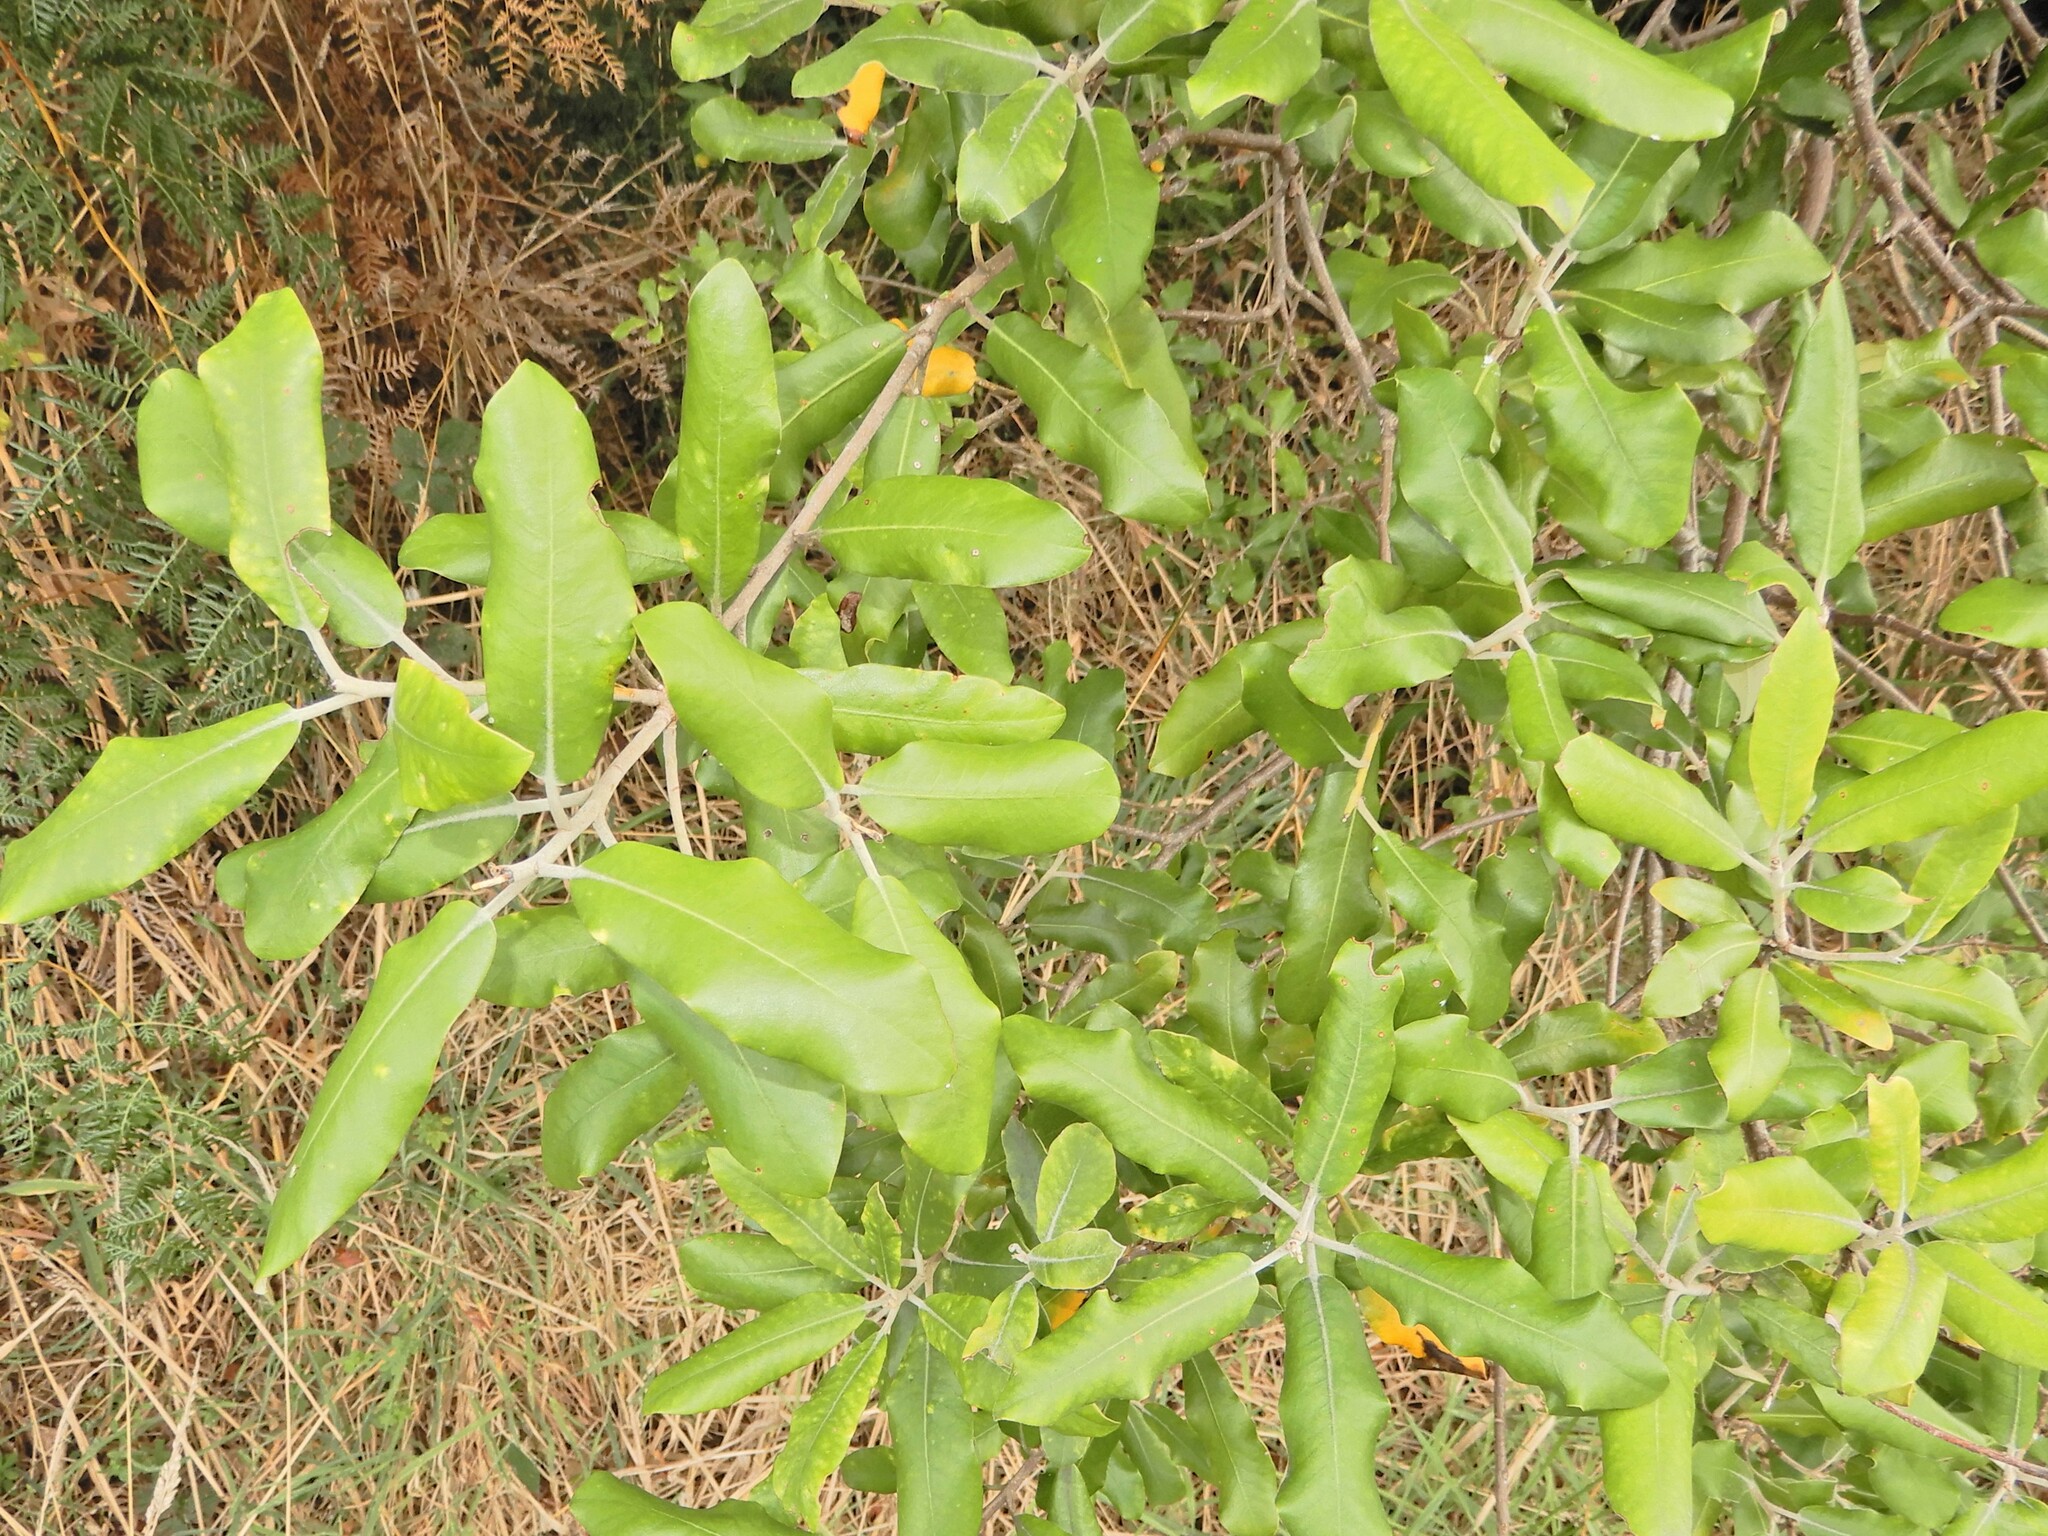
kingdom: Plantae
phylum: Tracheophyta
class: Magnoliopsida
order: Apiales
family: Pittosporaceae
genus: Pittosporum
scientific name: Pittosporum ralphii
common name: Ralph's desertwillow
